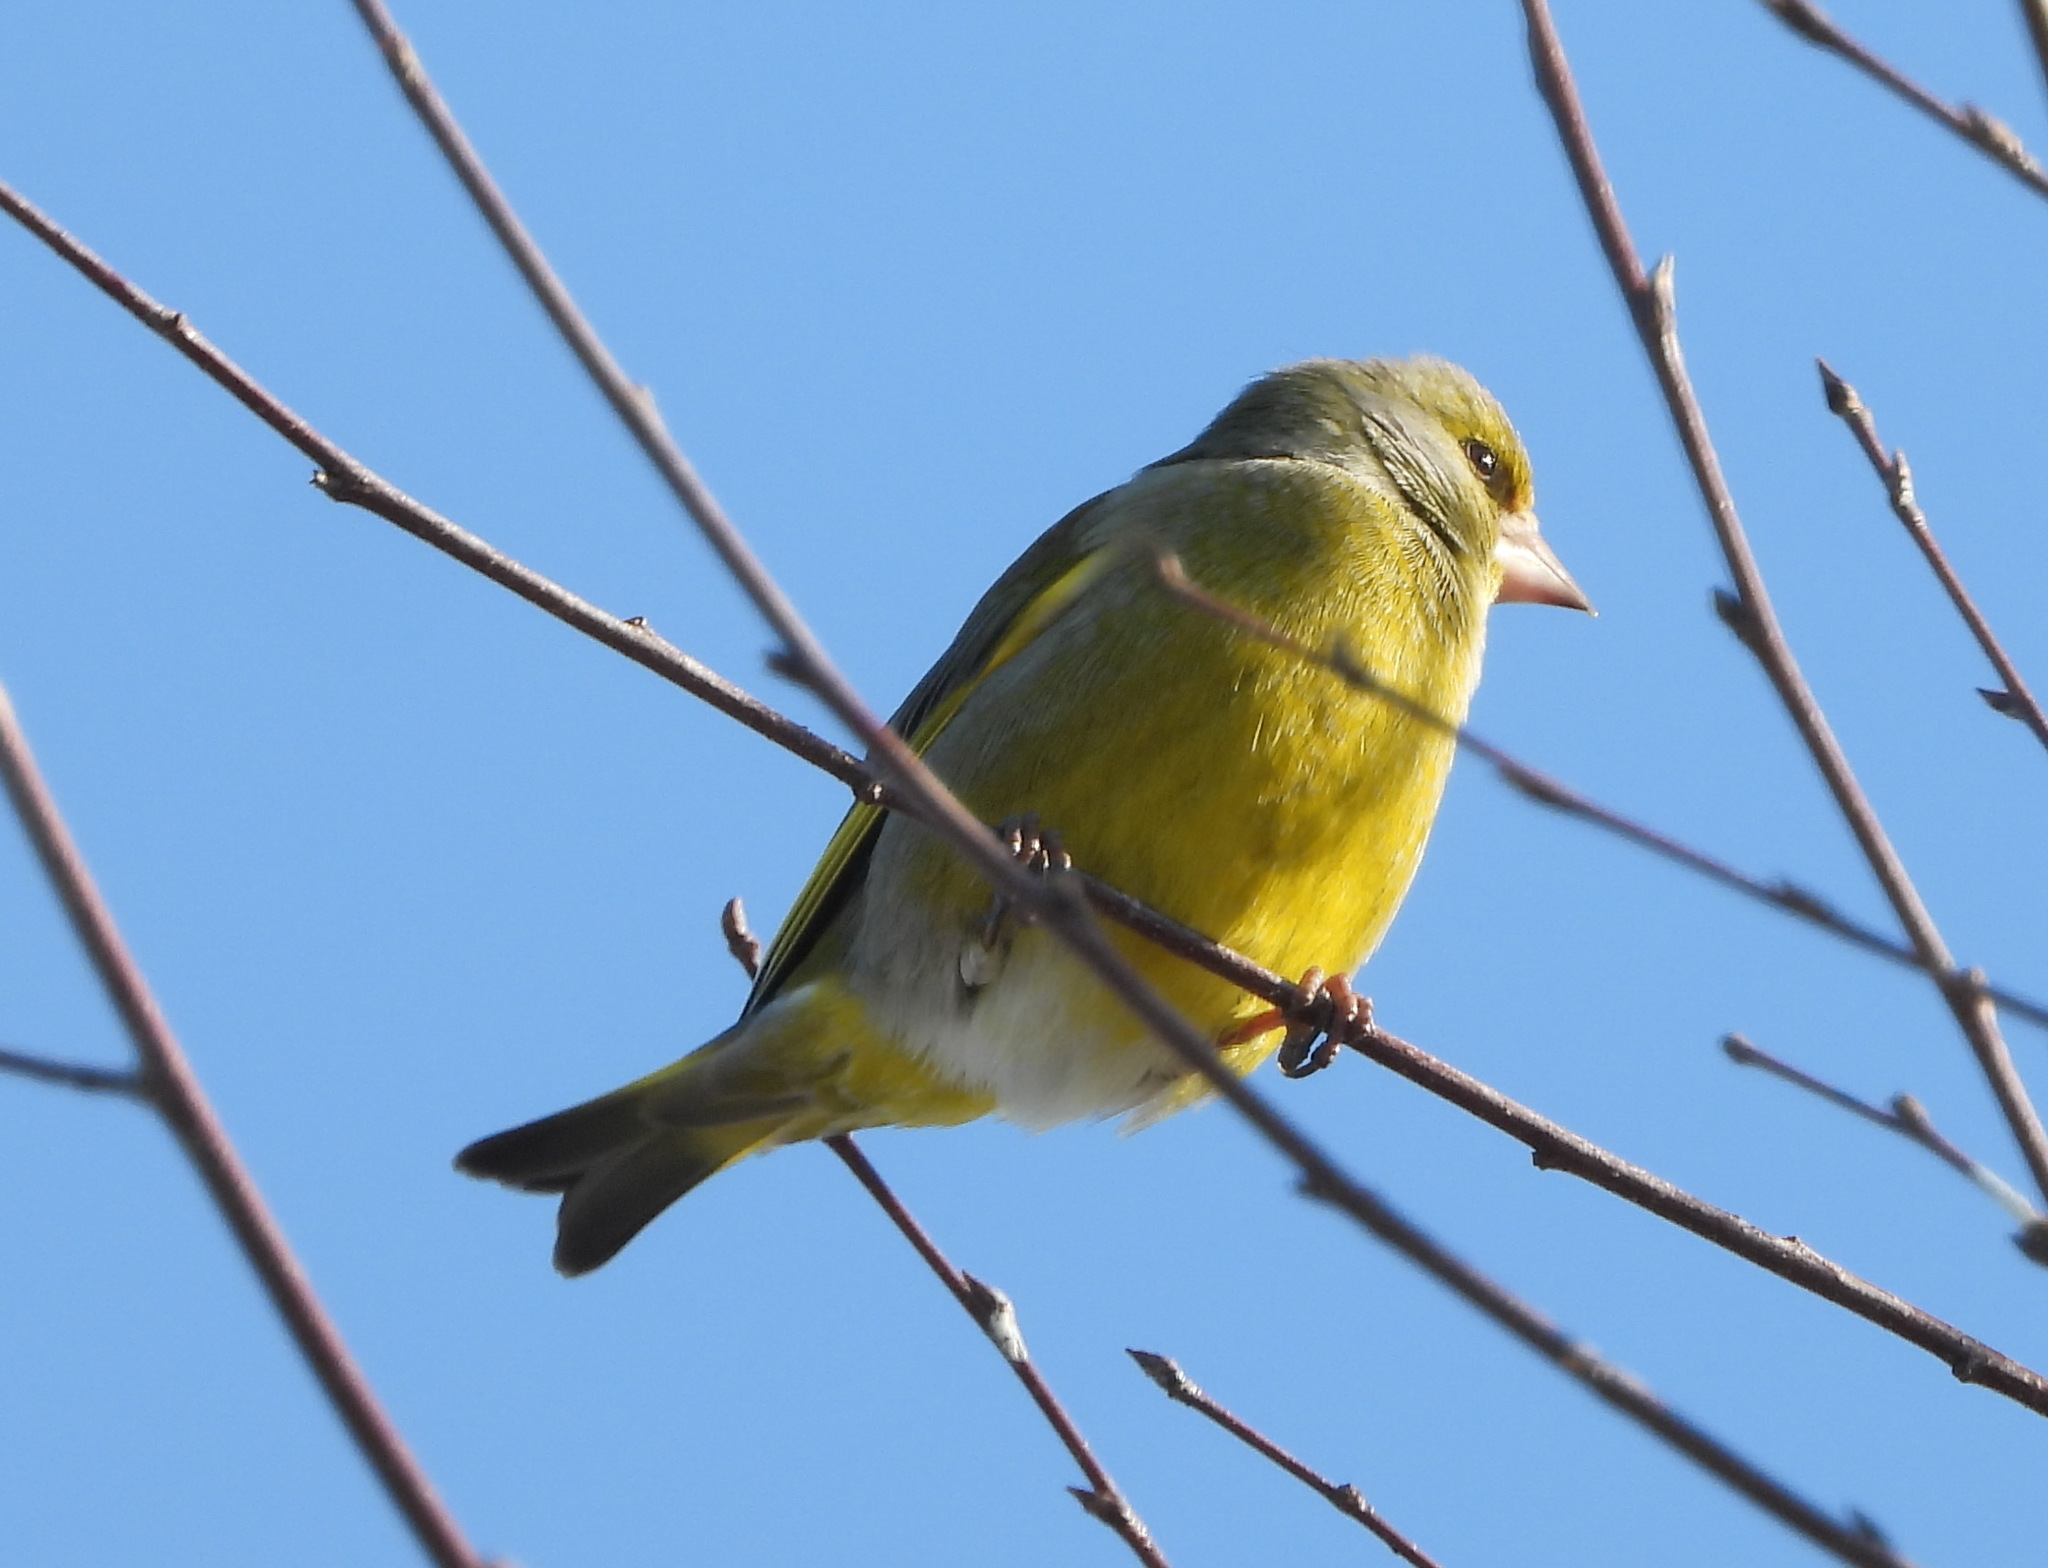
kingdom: Plantae
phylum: Tracheophyta
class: Liliopsida
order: Poales
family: Poaceae
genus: Chloris
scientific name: Chloris chloris
